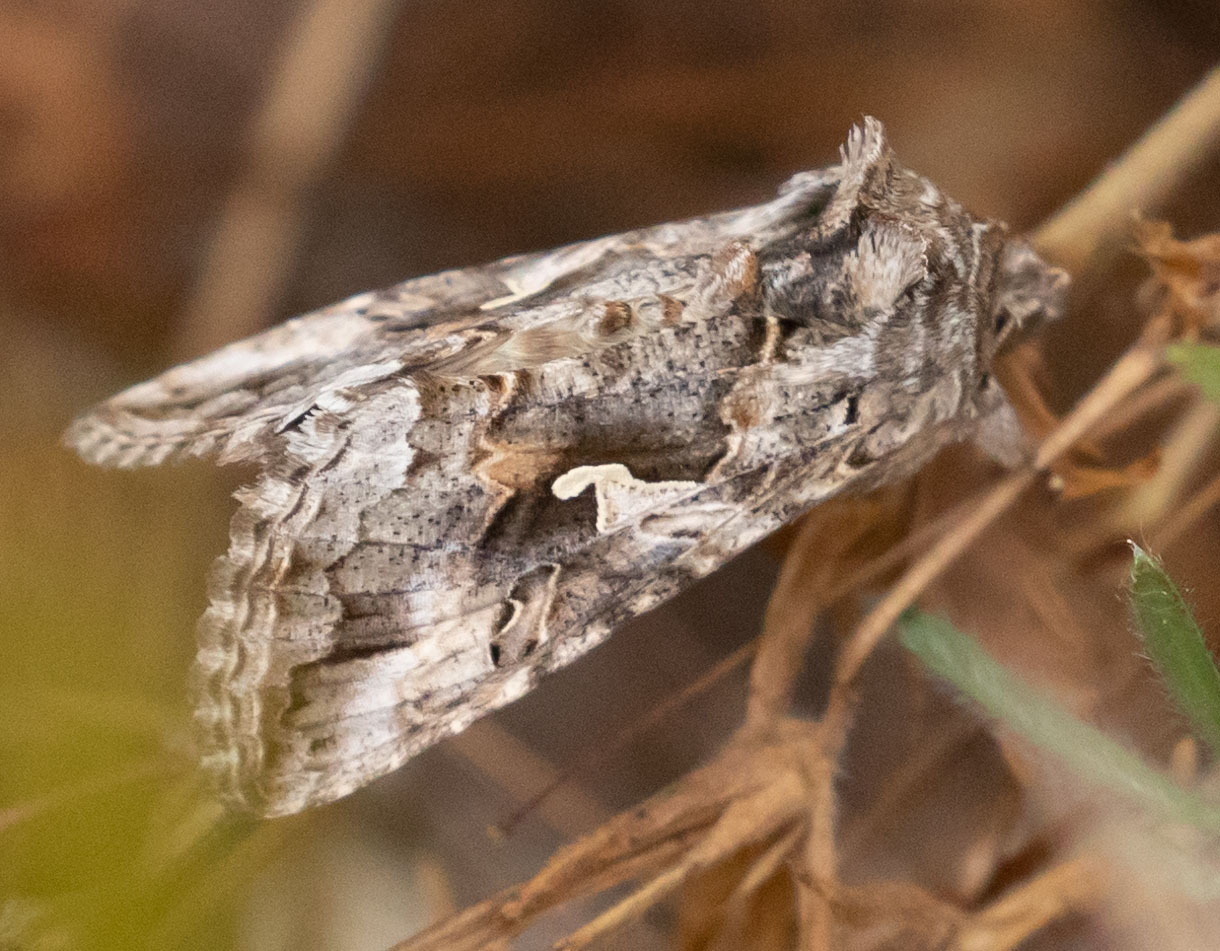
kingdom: Animalia
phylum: Arthropoda
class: Insecta
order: Lepidoptera
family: Noctuidae
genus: Autographa
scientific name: Autographa californica
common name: Alfalfa looper
